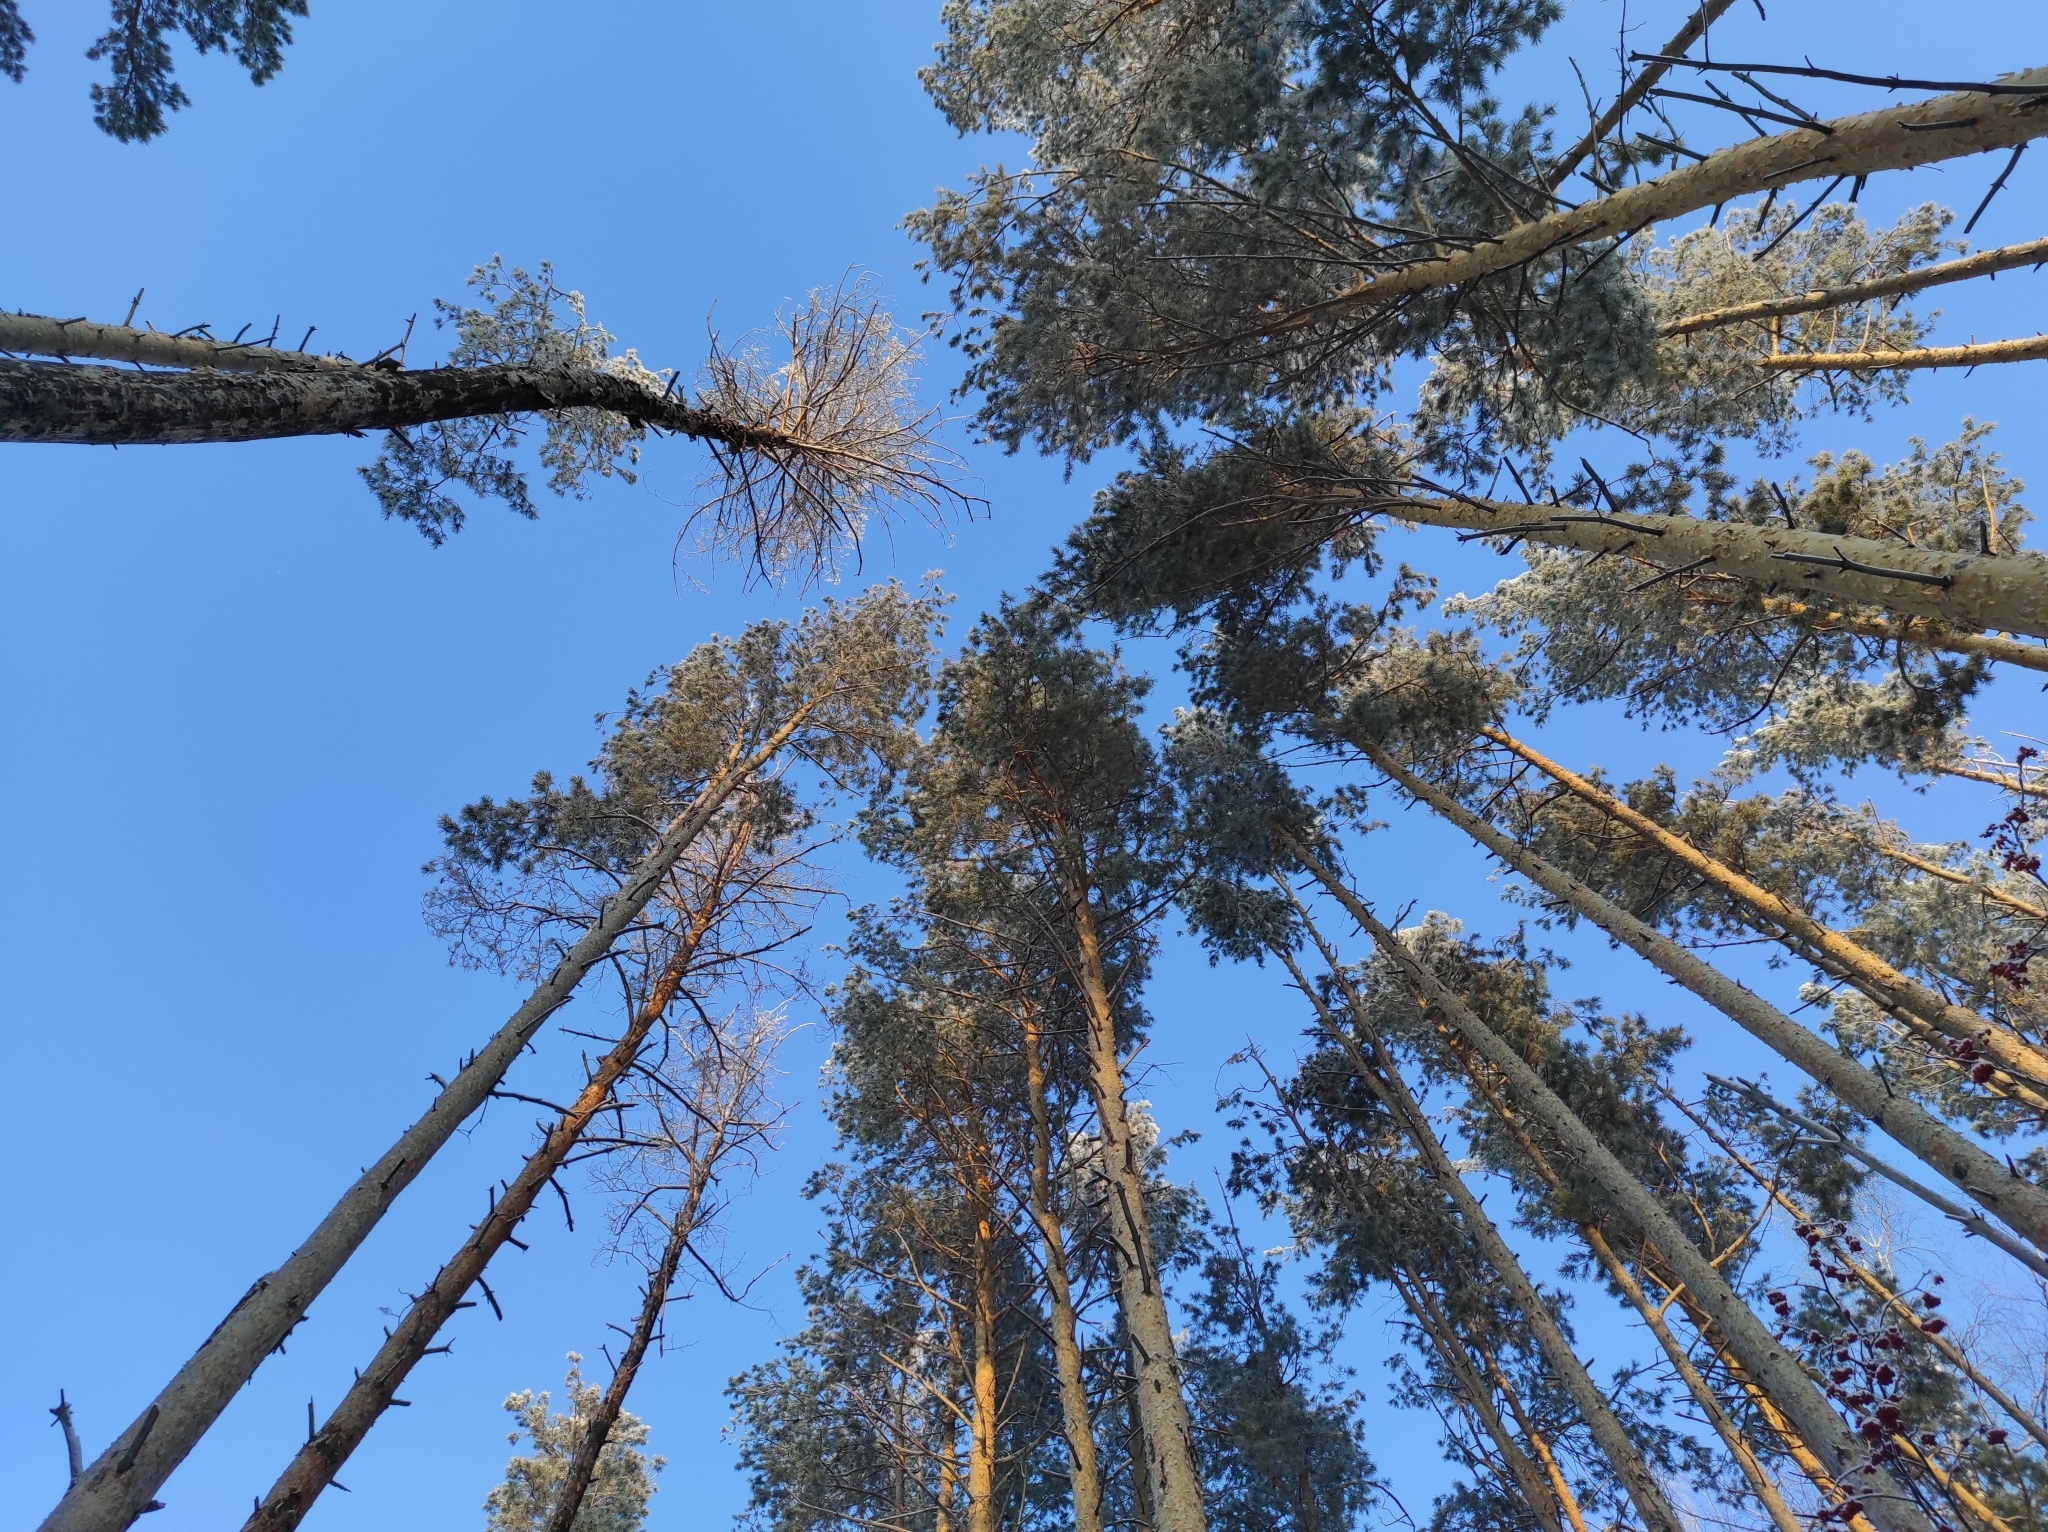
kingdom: Plantae
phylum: Tracheophyta
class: Pinopsida
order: Pinales
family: Pinaceae
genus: Pinus
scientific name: Pinus sylvestris
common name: Scots pine
